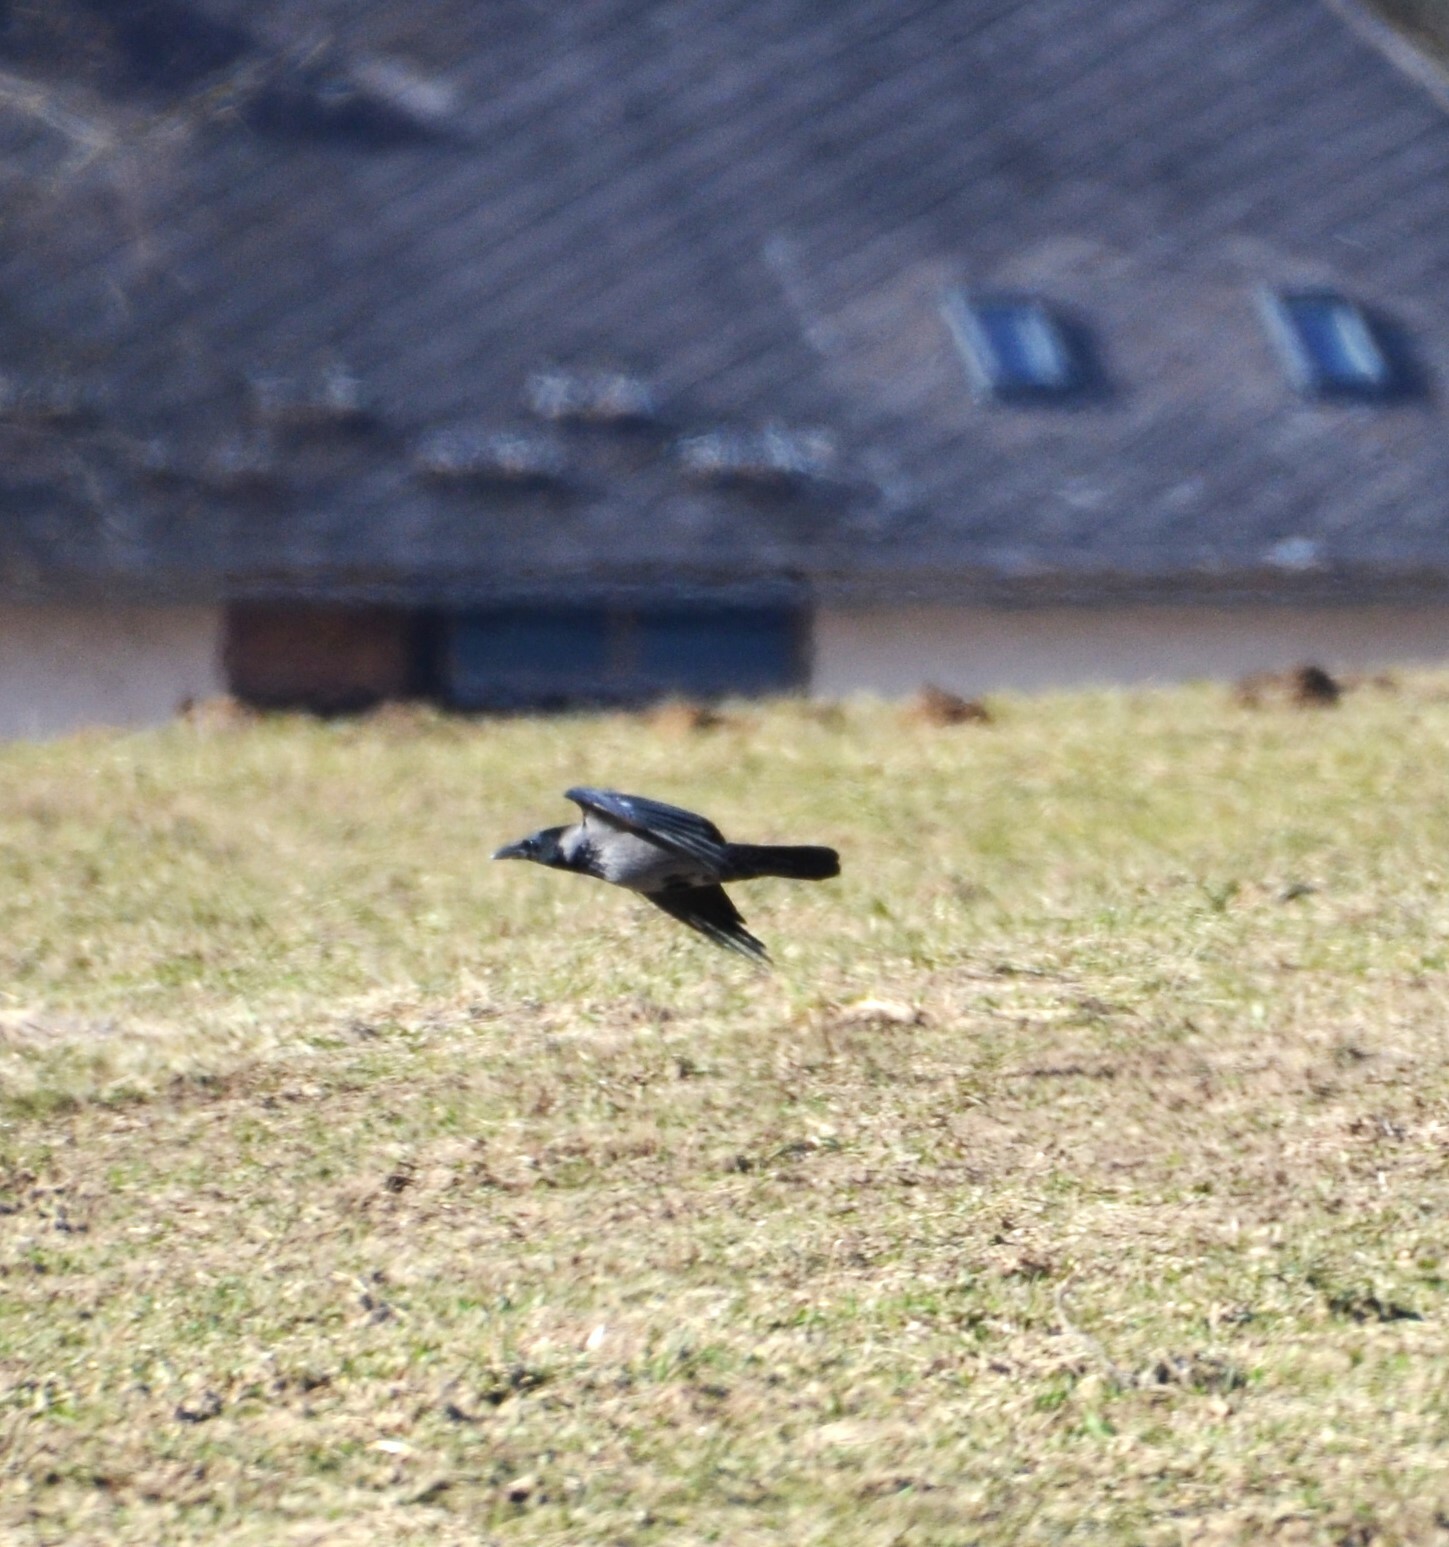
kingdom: Animalia
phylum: Chordata
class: Aves
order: Passeriformes
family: Corvidae
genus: Corvus
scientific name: Corvus cornix
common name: Hooded crow
